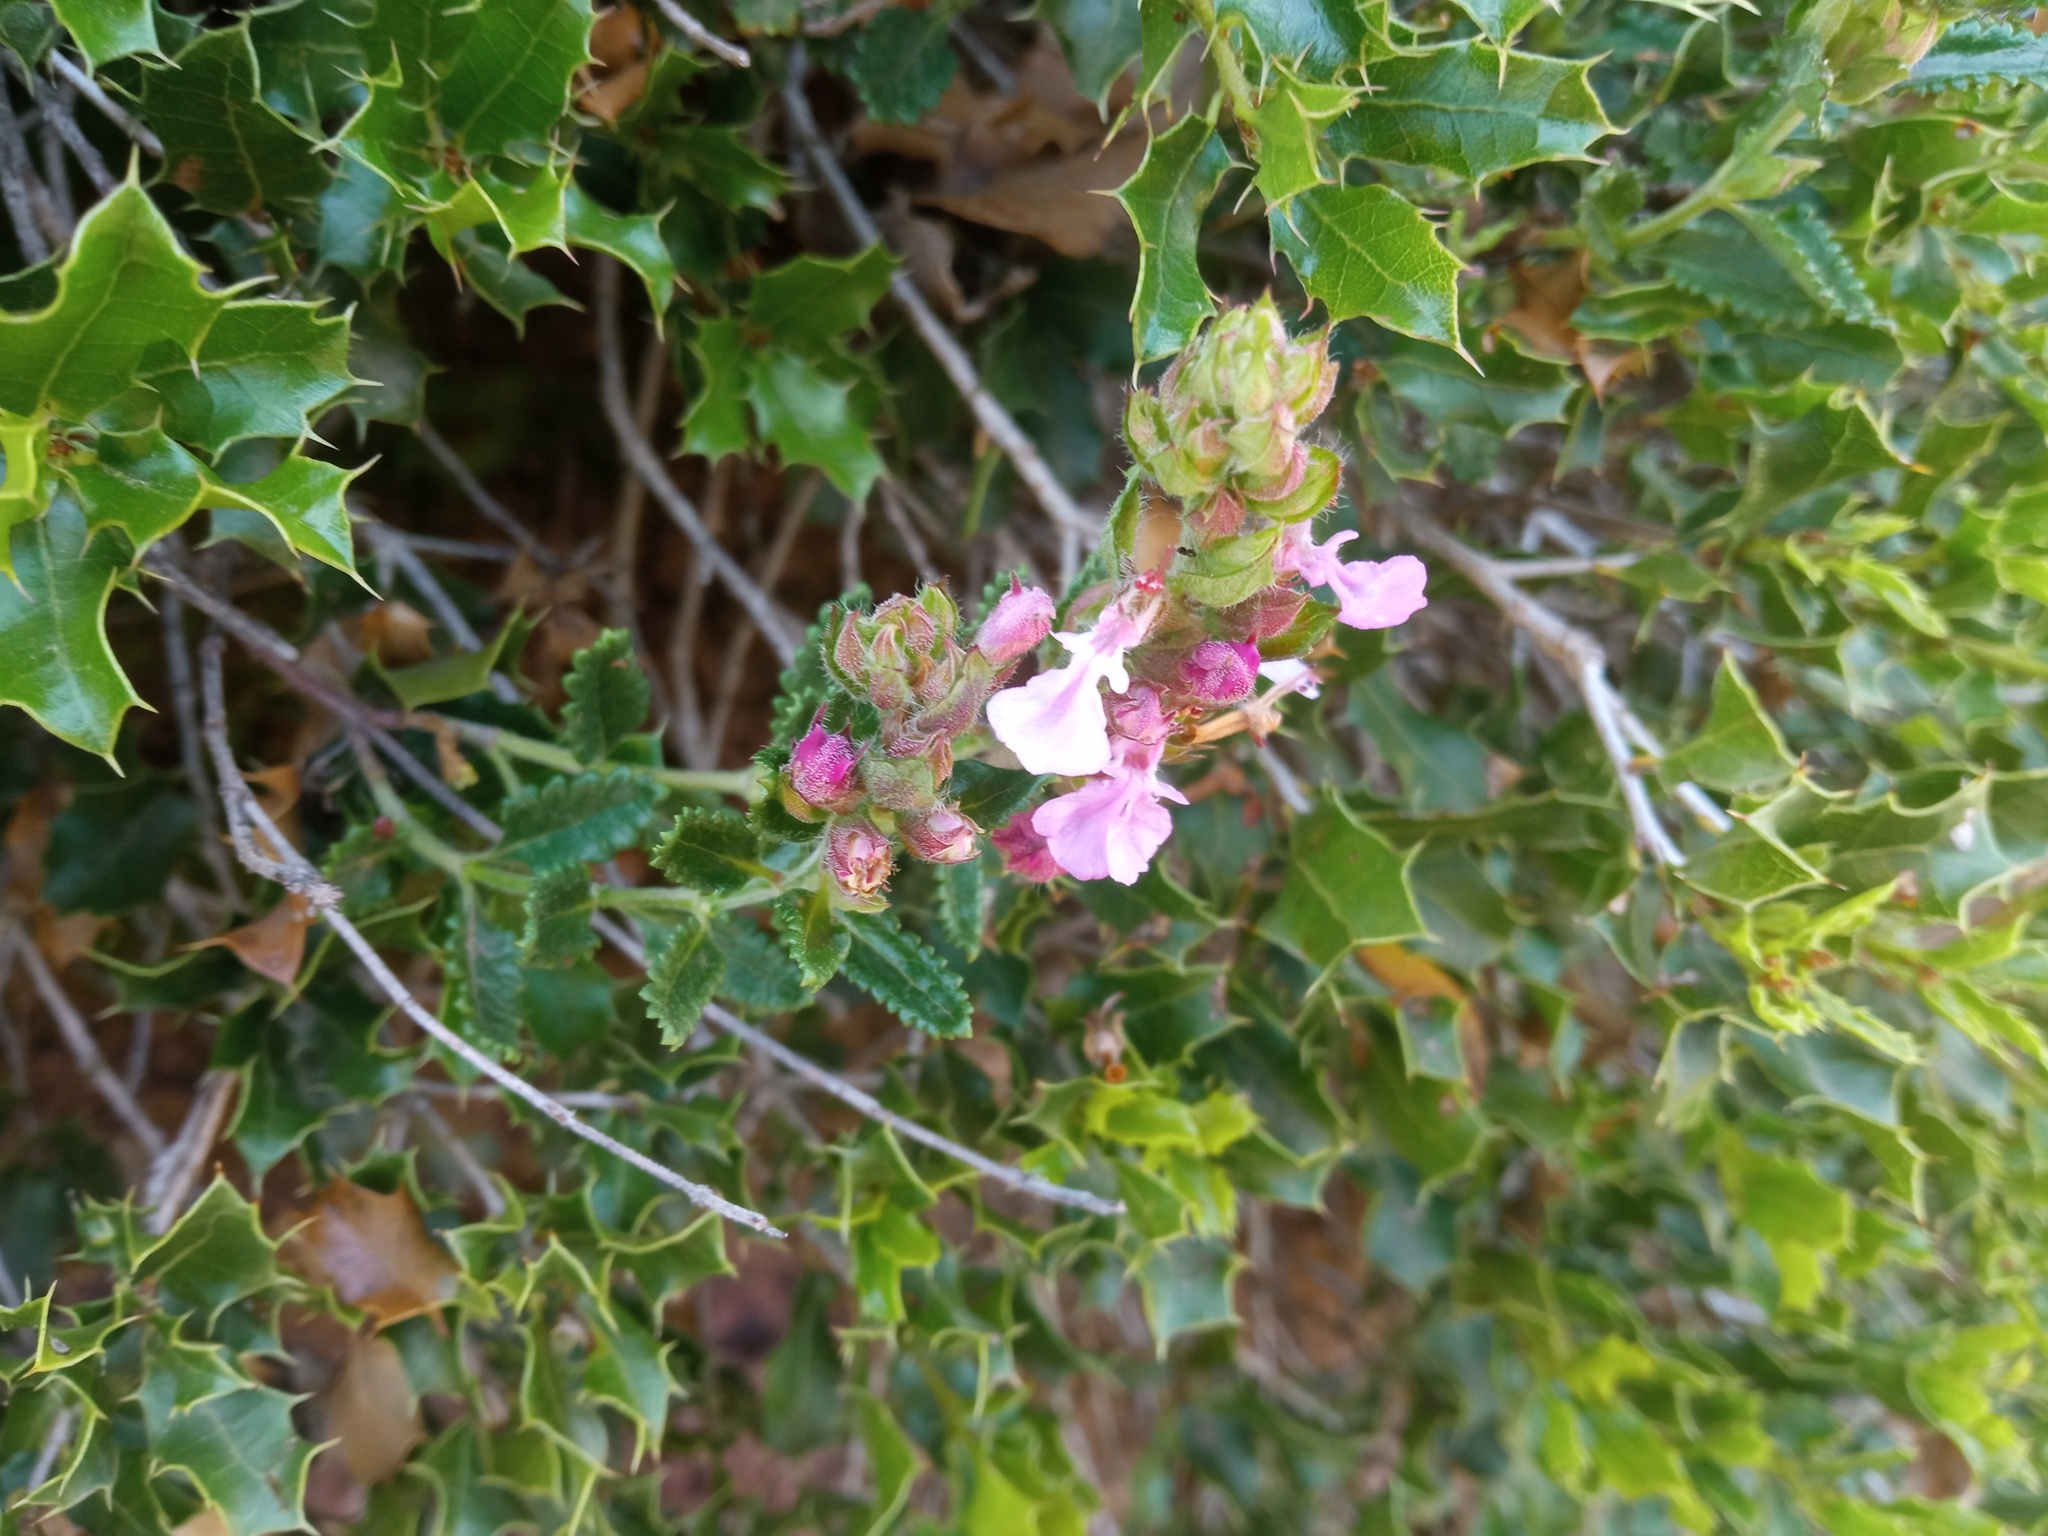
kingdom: Plantae
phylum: Tracheophyta
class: Magnoliopsida
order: Lamiales
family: Lamiaceae
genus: Teucrium
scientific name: Teucrium chamaedrys
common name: Wall germander
